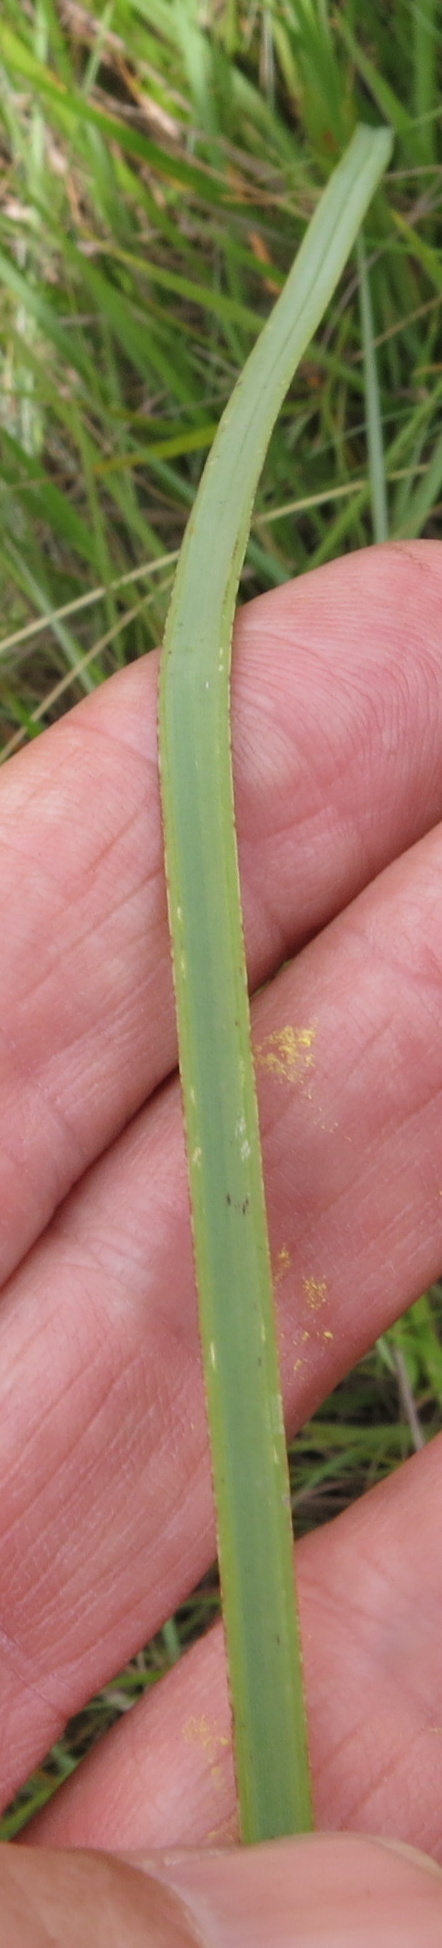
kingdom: Plantae
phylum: Tracheophyta
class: Liliopsida
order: Asparagales
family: Asphodelaceae
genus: Kniphofia
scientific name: Kniphofia buchananii
